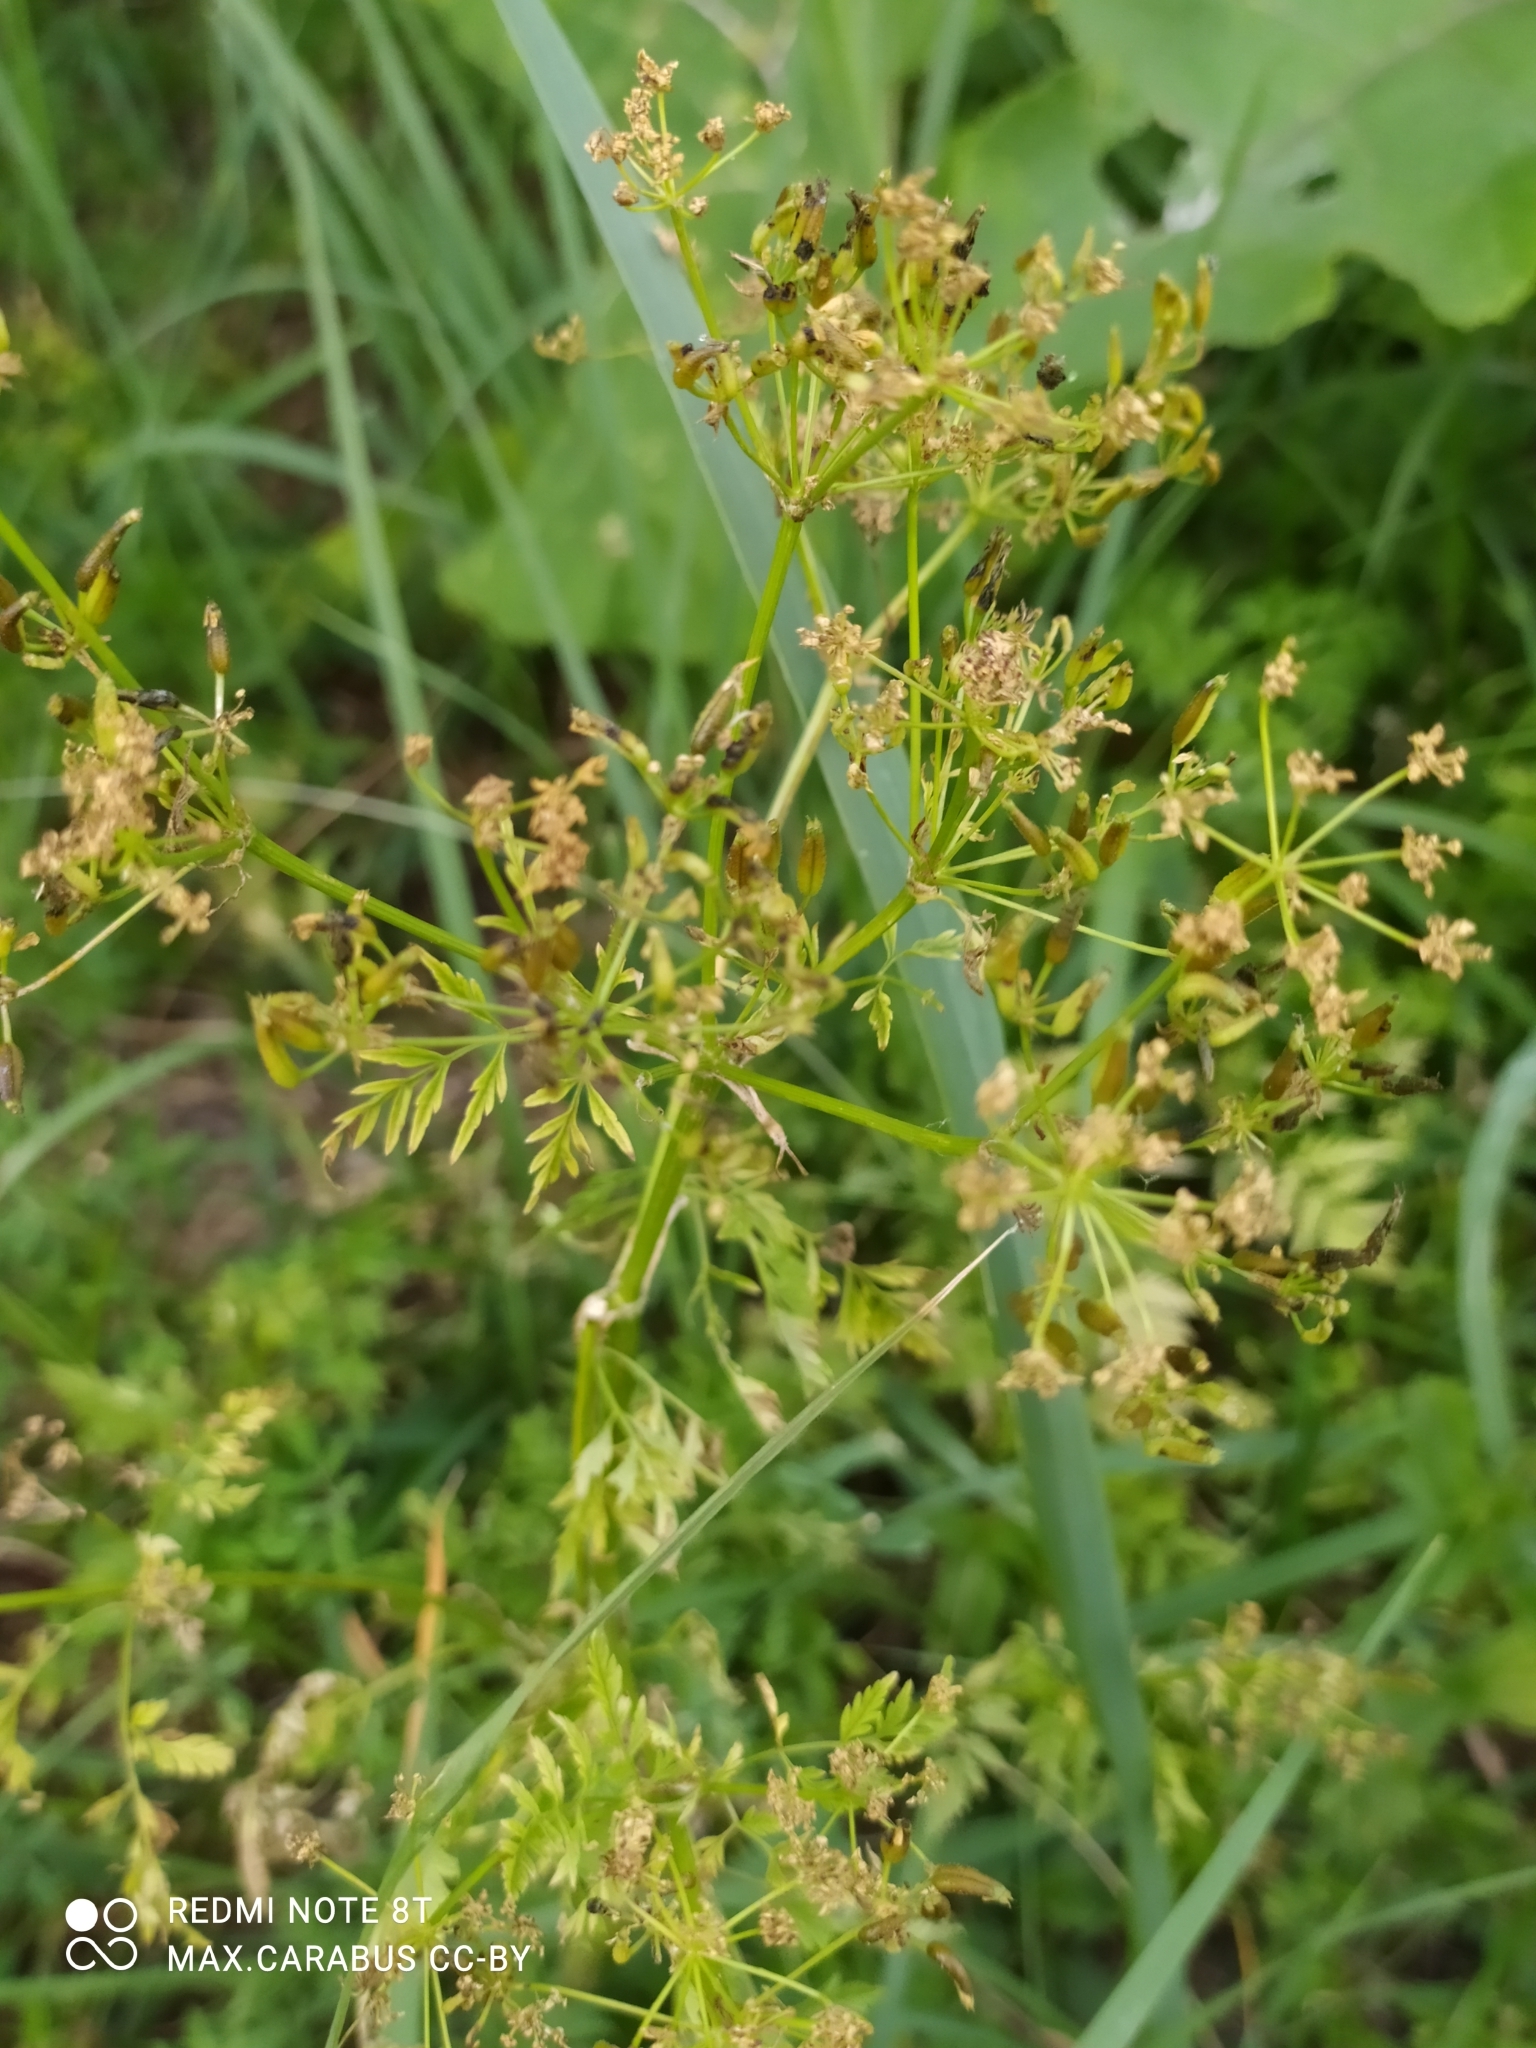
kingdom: Plantae
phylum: Tracheophyta
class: Magnoliopsida
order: Apiales
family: Apiaceae
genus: Anthriscus
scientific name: Anthriscus sylvestris
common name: Cow parsley
